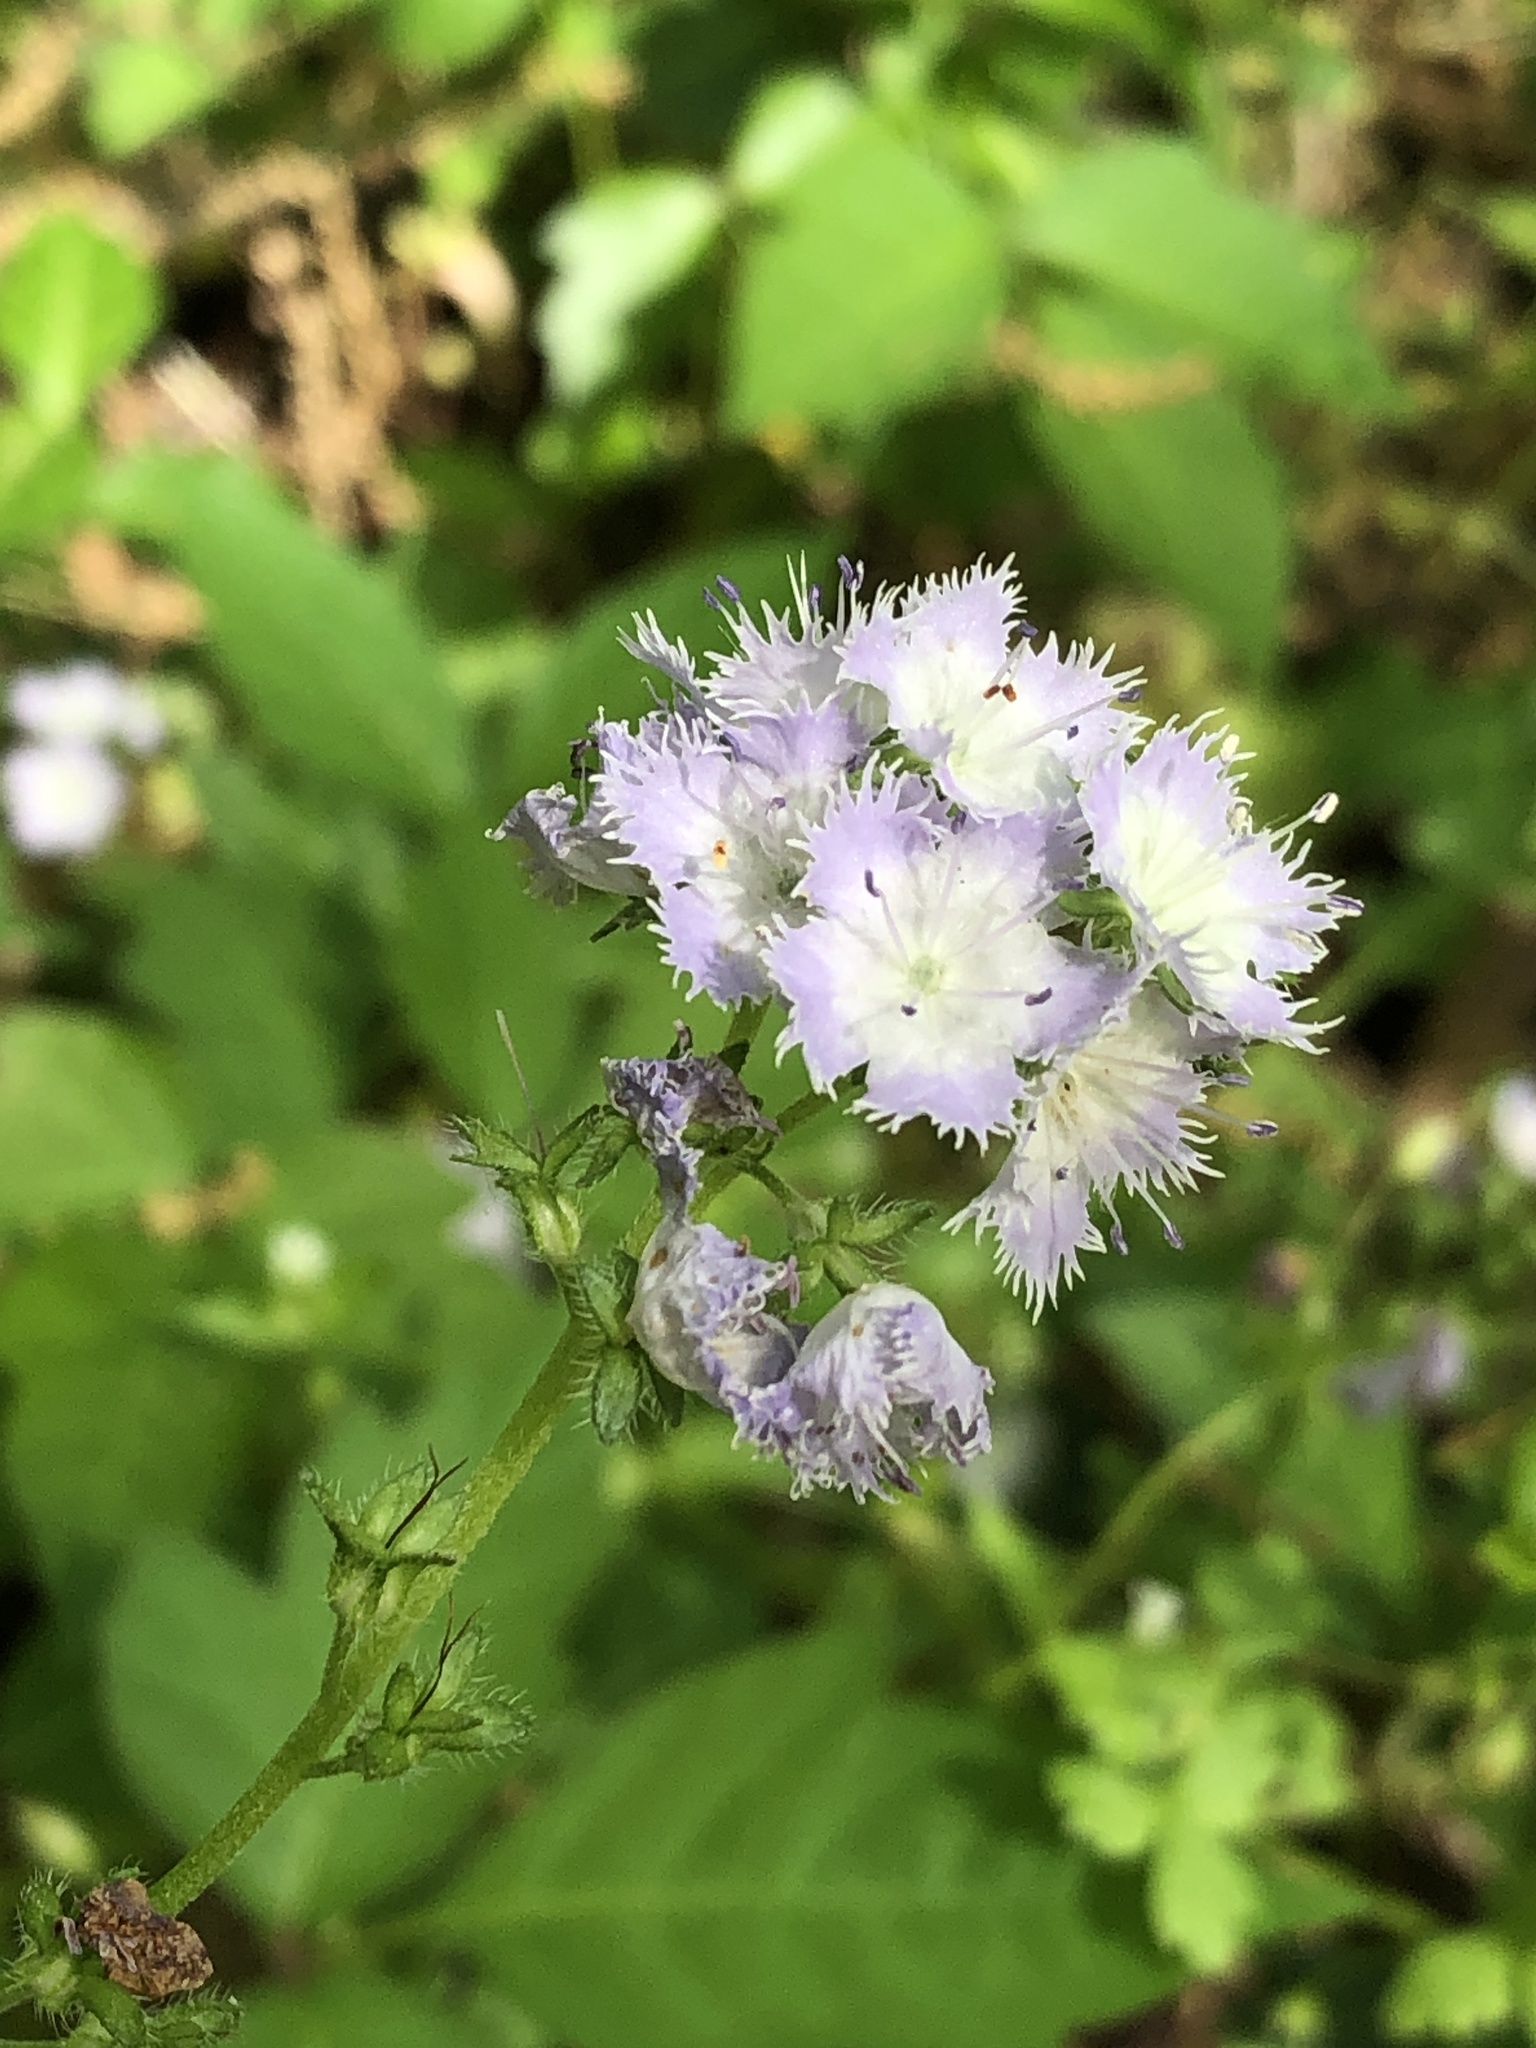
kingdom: Plantae
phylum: Tracheophyta
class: Magnoliopsida
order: Boraginales
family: Hydrophyllaceae
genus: Phacelia
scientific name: Phacelia purshii
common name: Miami-mist
